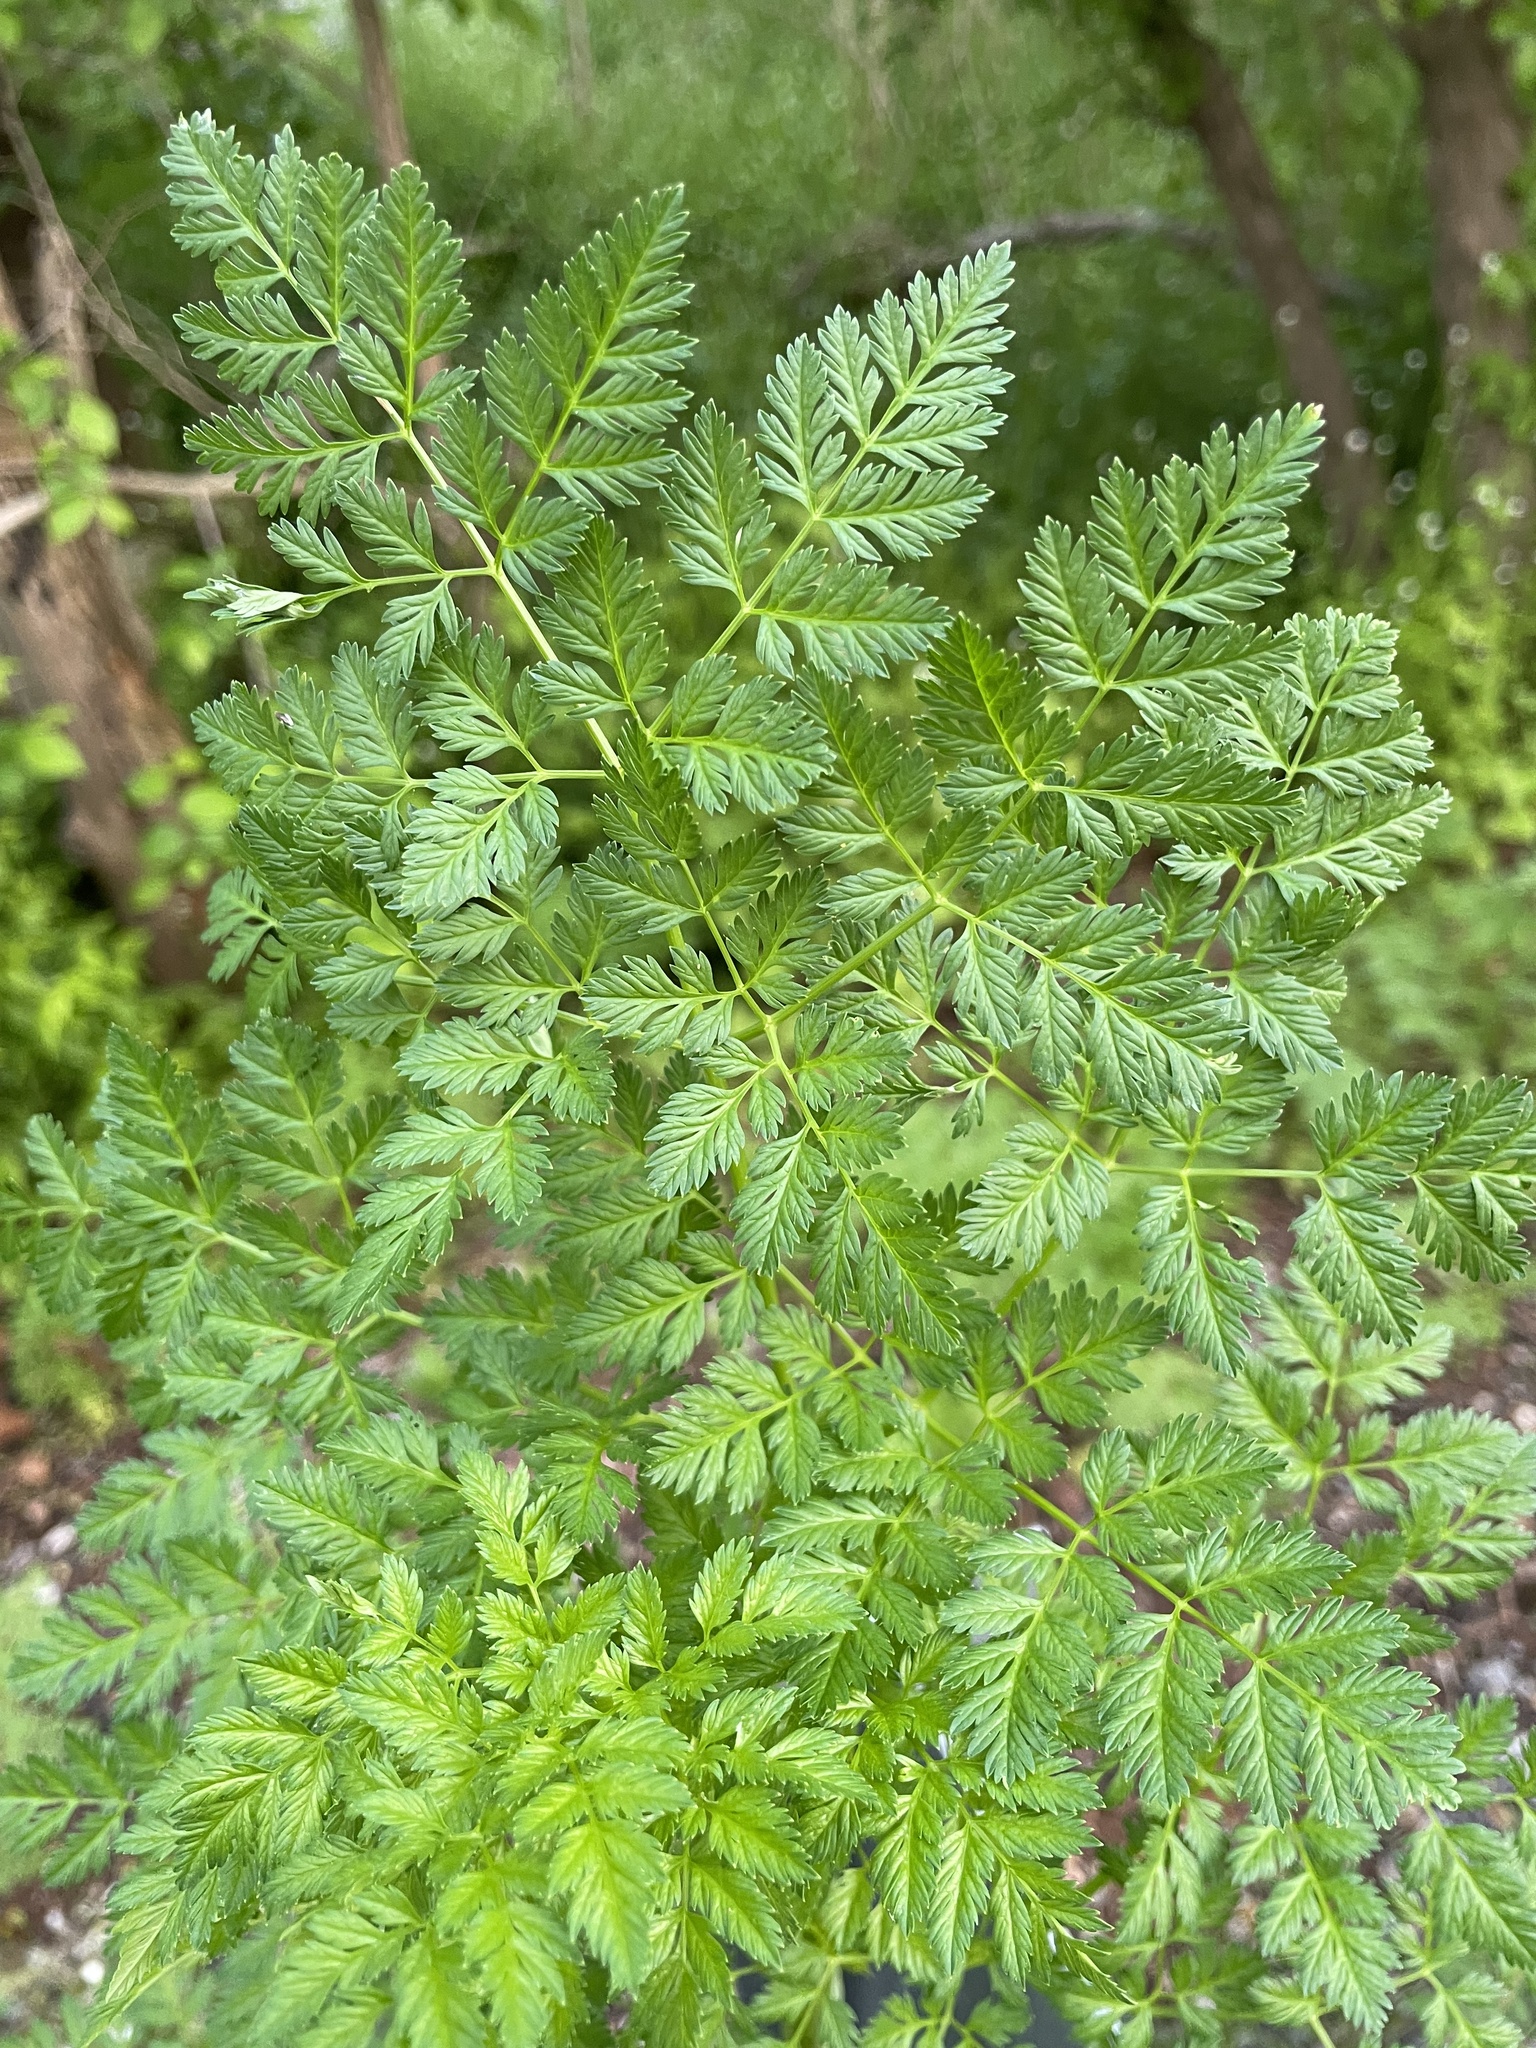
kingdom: Plantae
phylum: Tracheophyta
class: Magnoliopsida
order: Apiales
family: Apiaceae
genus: Conium
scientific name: Conium maculatum
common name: Hemlock
